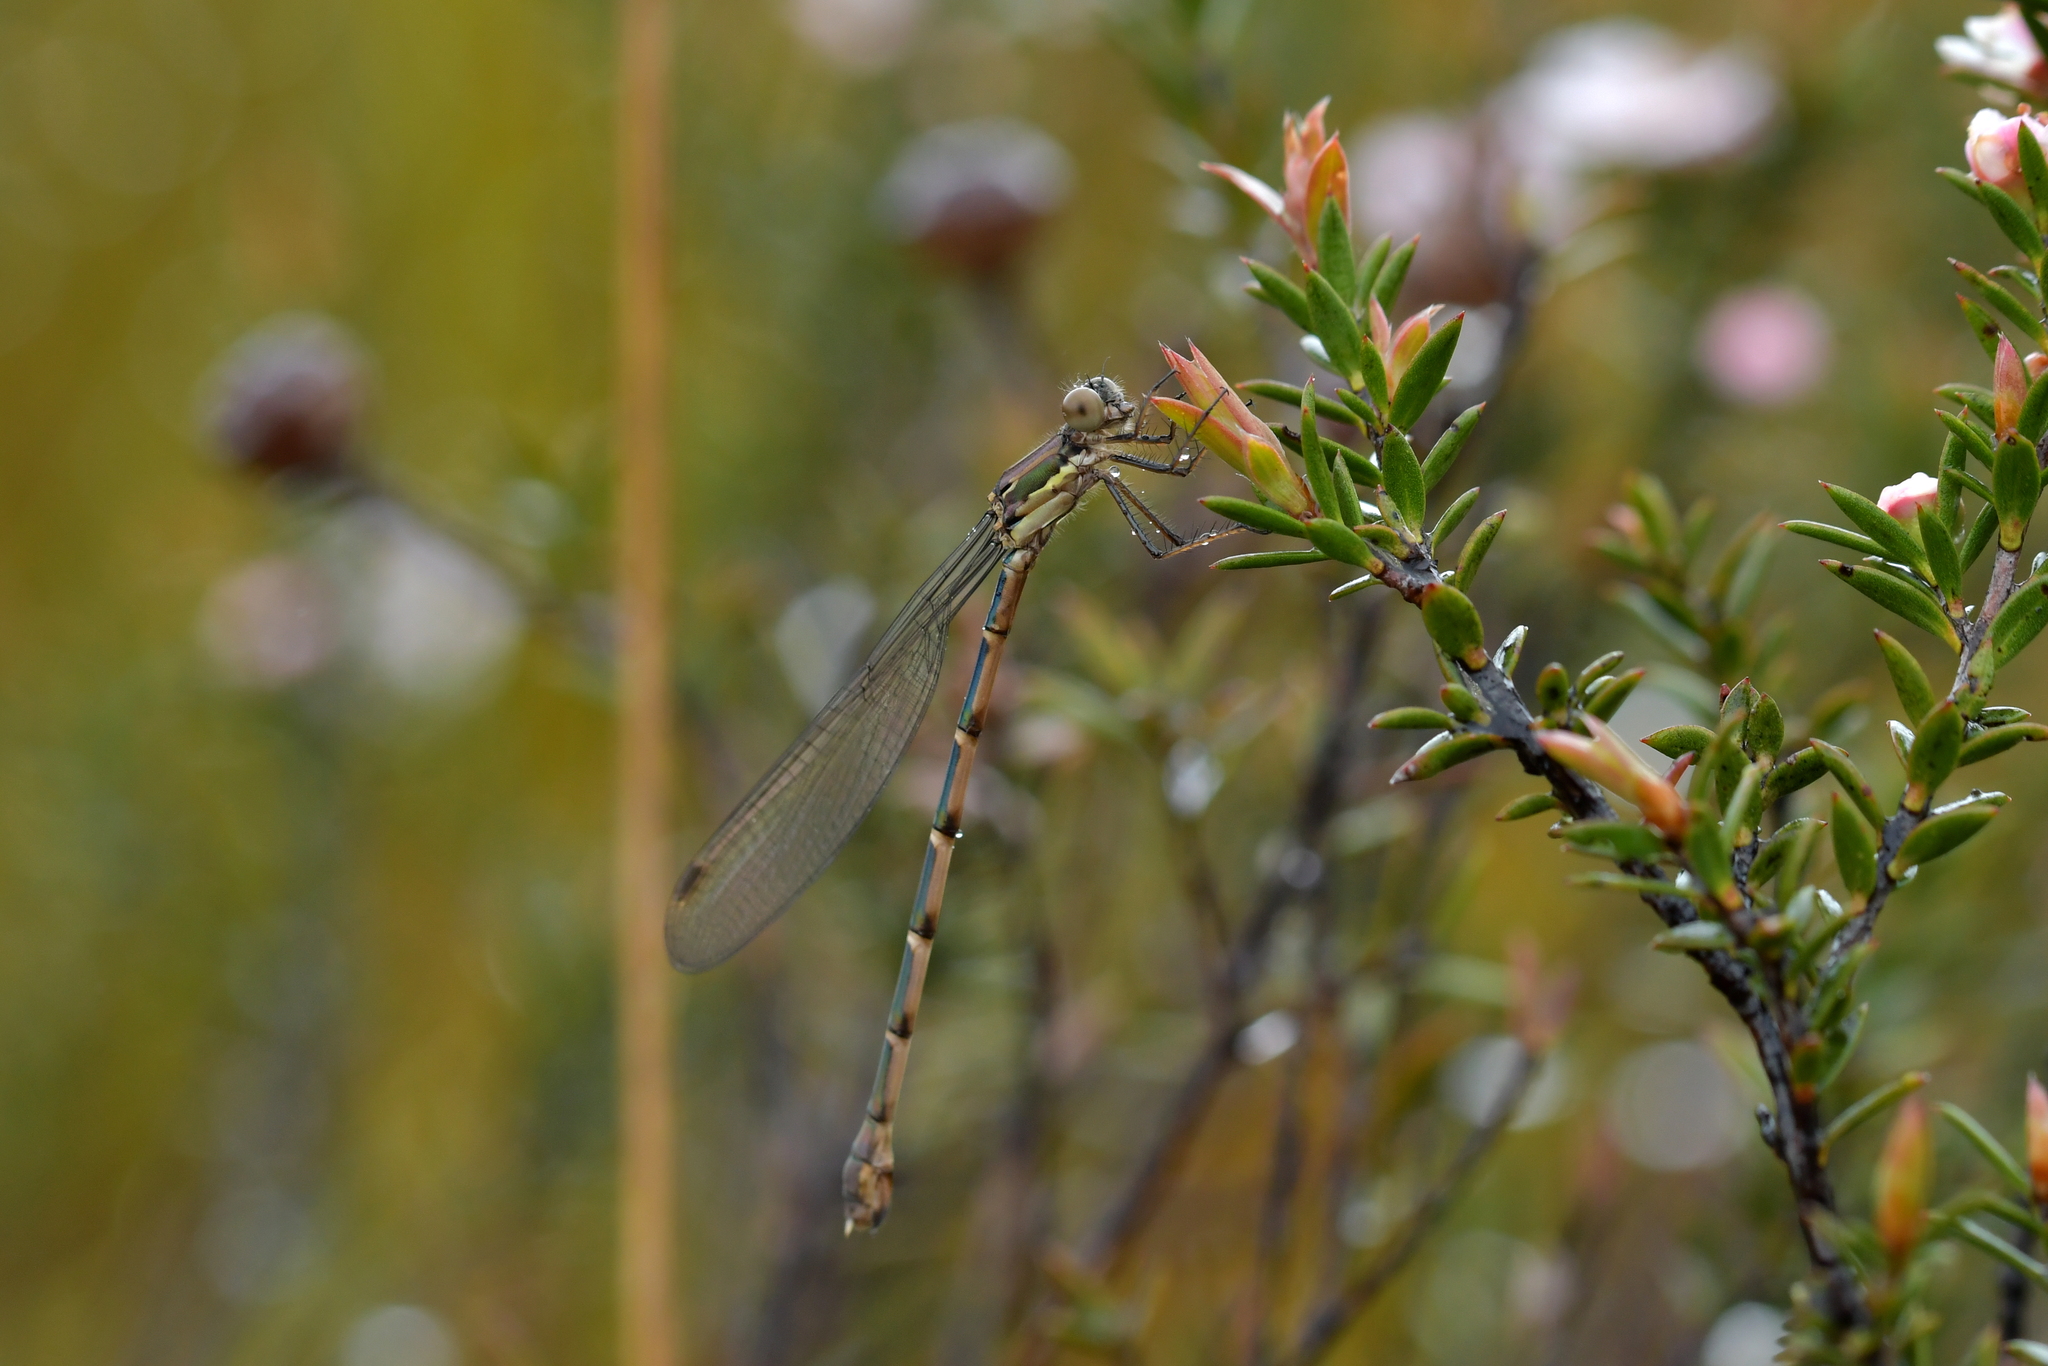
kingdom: Animalia
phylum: Arthropoda
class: Insecta
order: Odonata
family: Lestidae
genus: Austrolestes
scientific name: Austrolestes colensonis
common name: Blue damselfly
